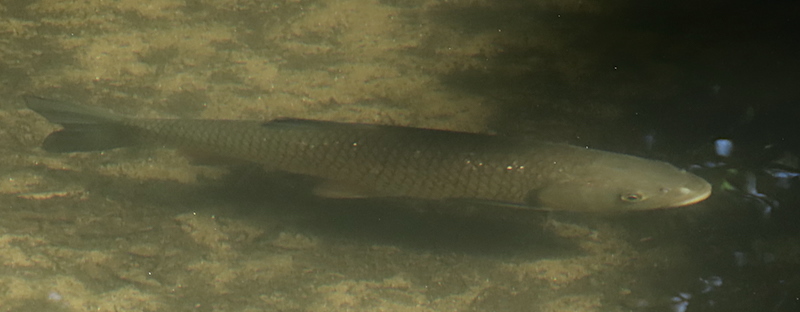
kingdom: Animalia
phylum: Chordata
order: Cypriniformes
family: Cyprinidae
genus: Squalius
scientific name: Squalius cephalus
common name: Chub
